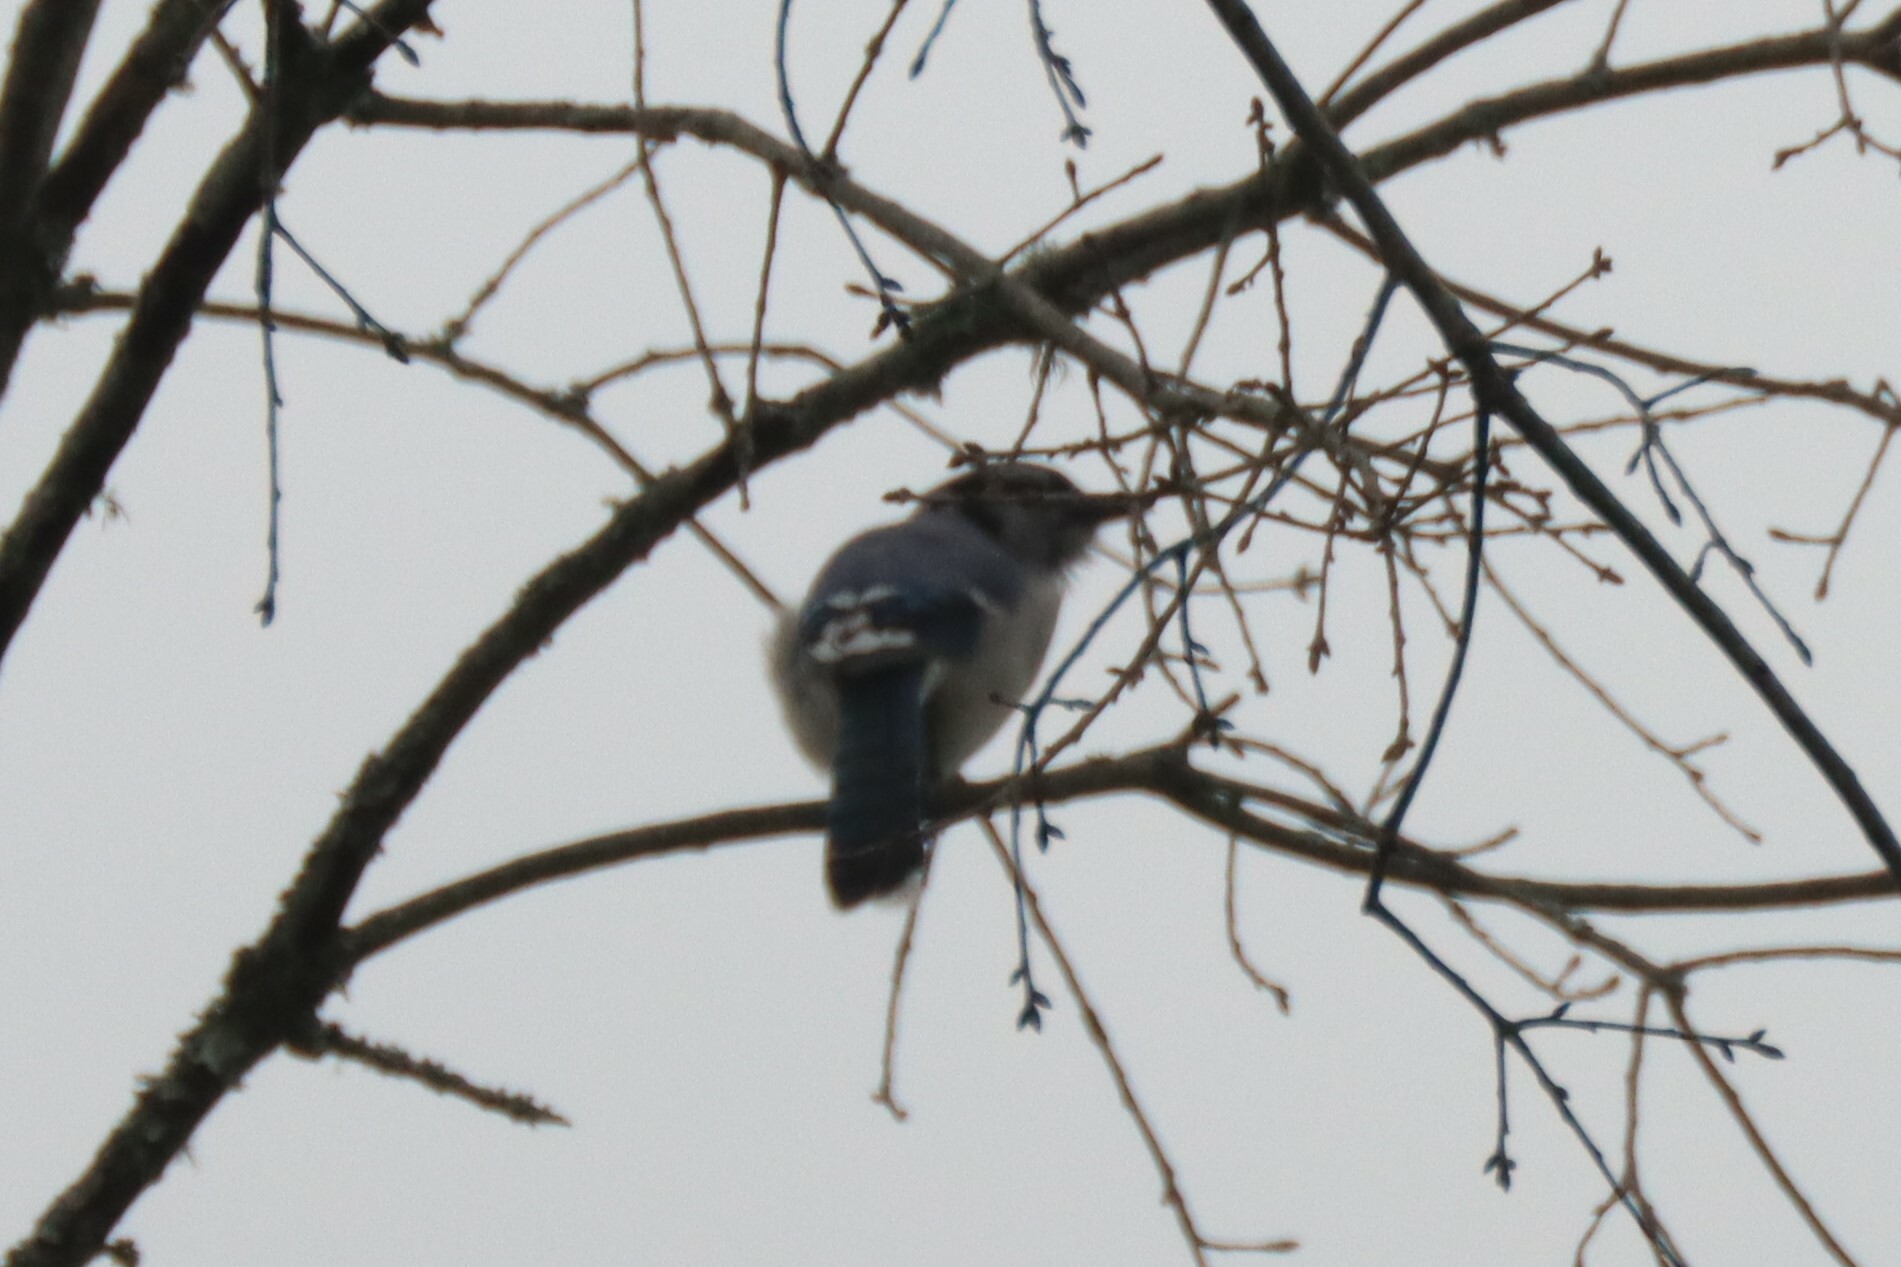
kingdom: Animalia
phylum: Chordata
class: Aves
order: Passeriformes
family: Corvidae
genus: Cyanocitta
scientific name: Cyanocitta cristata
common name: Blue jay
